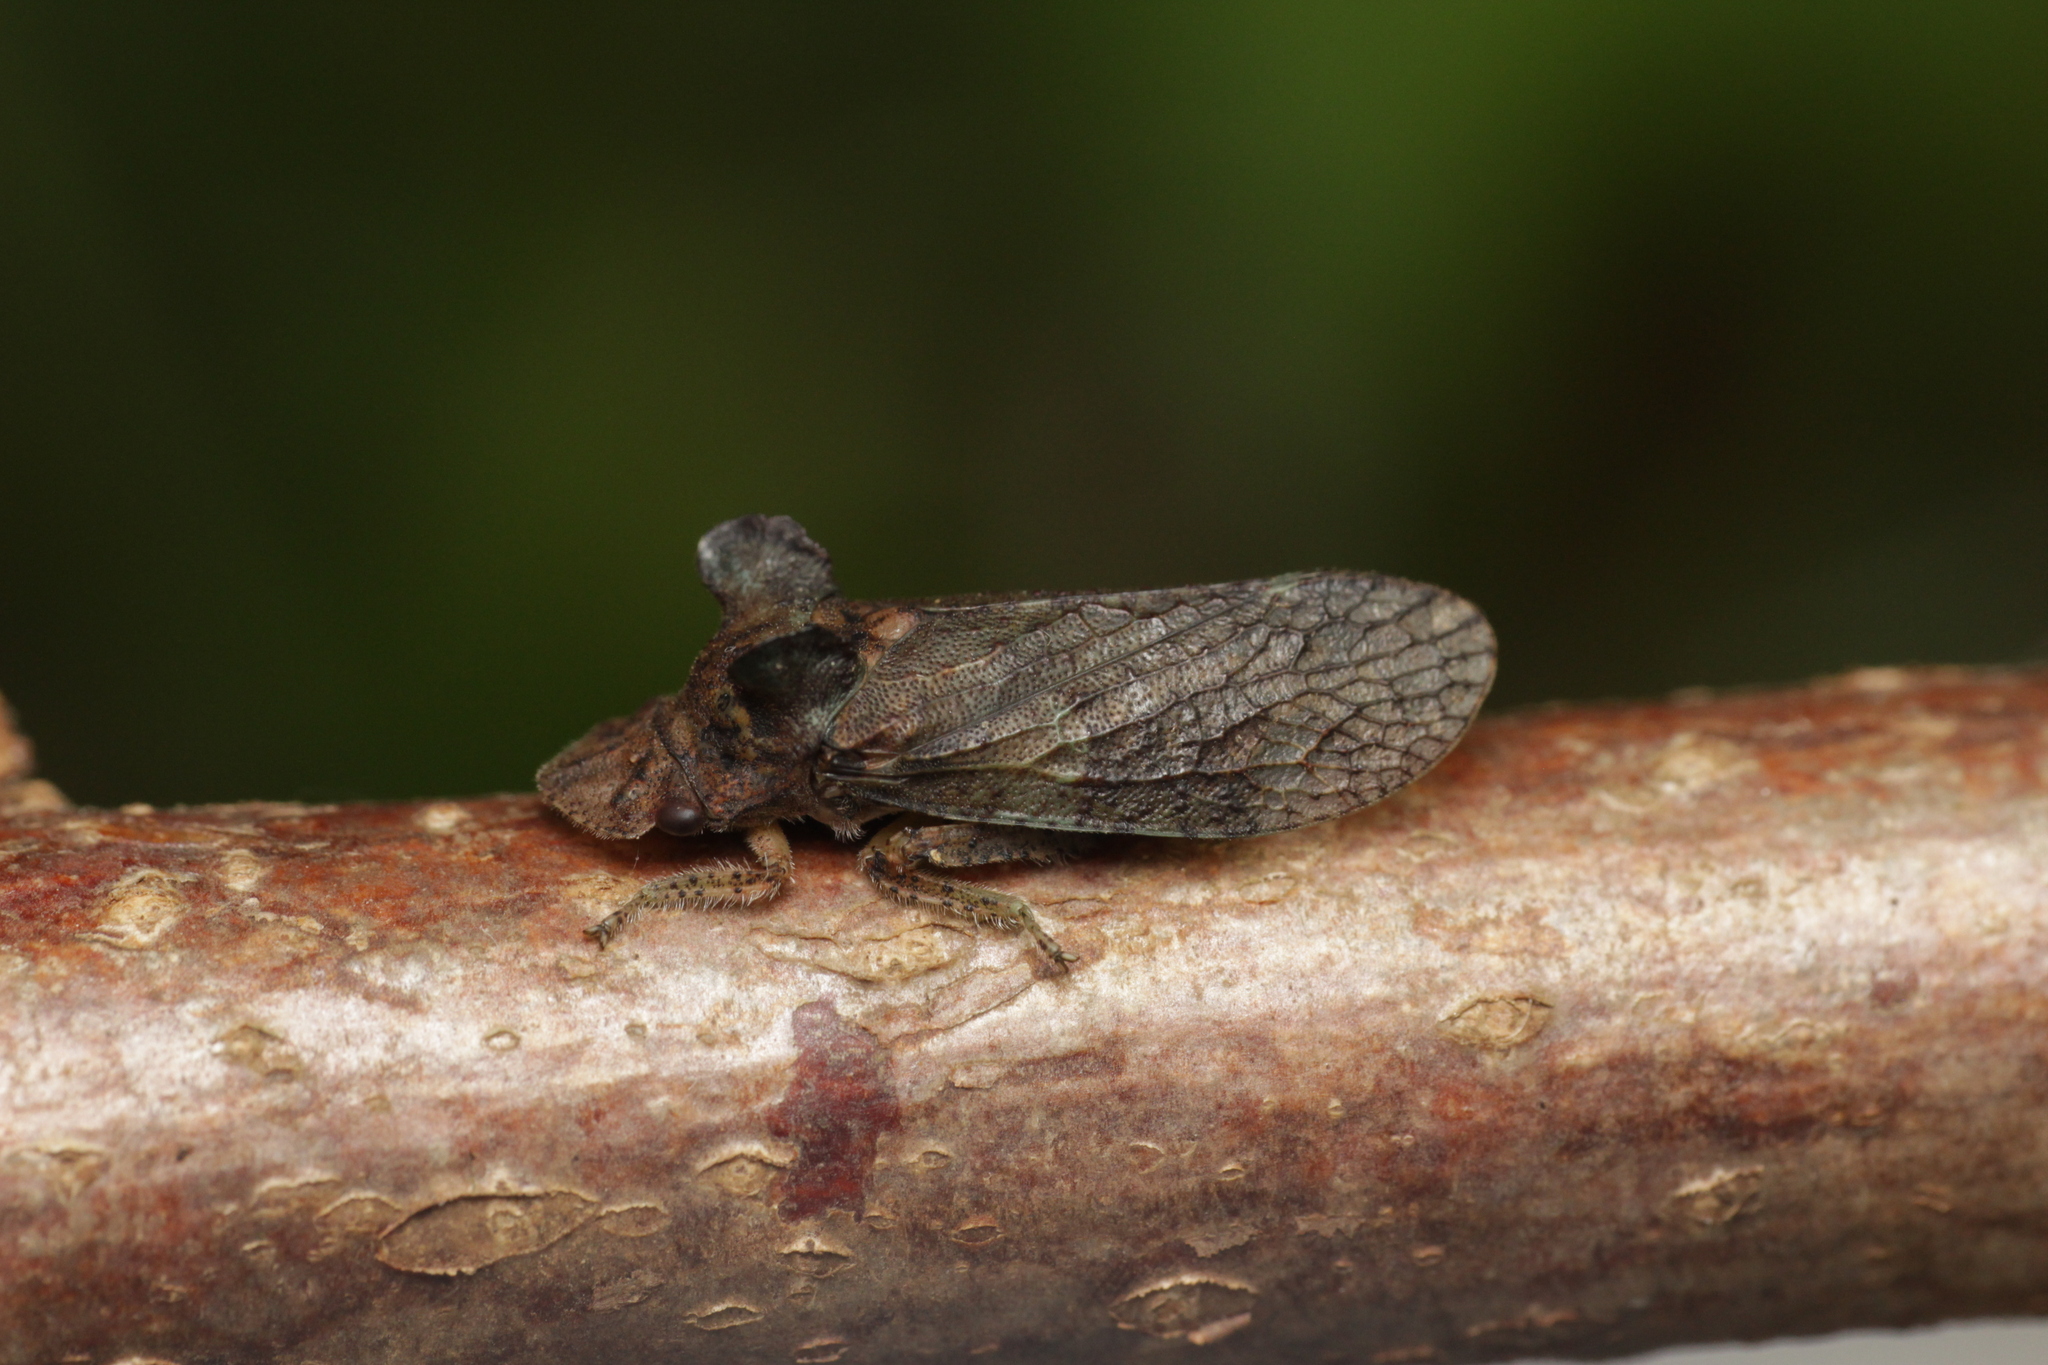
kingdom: Animalia
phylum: Arthropoda
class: Insecta
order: Hemiptera
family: Cicadellidae
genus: Ledra
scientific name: Ledra aurita
